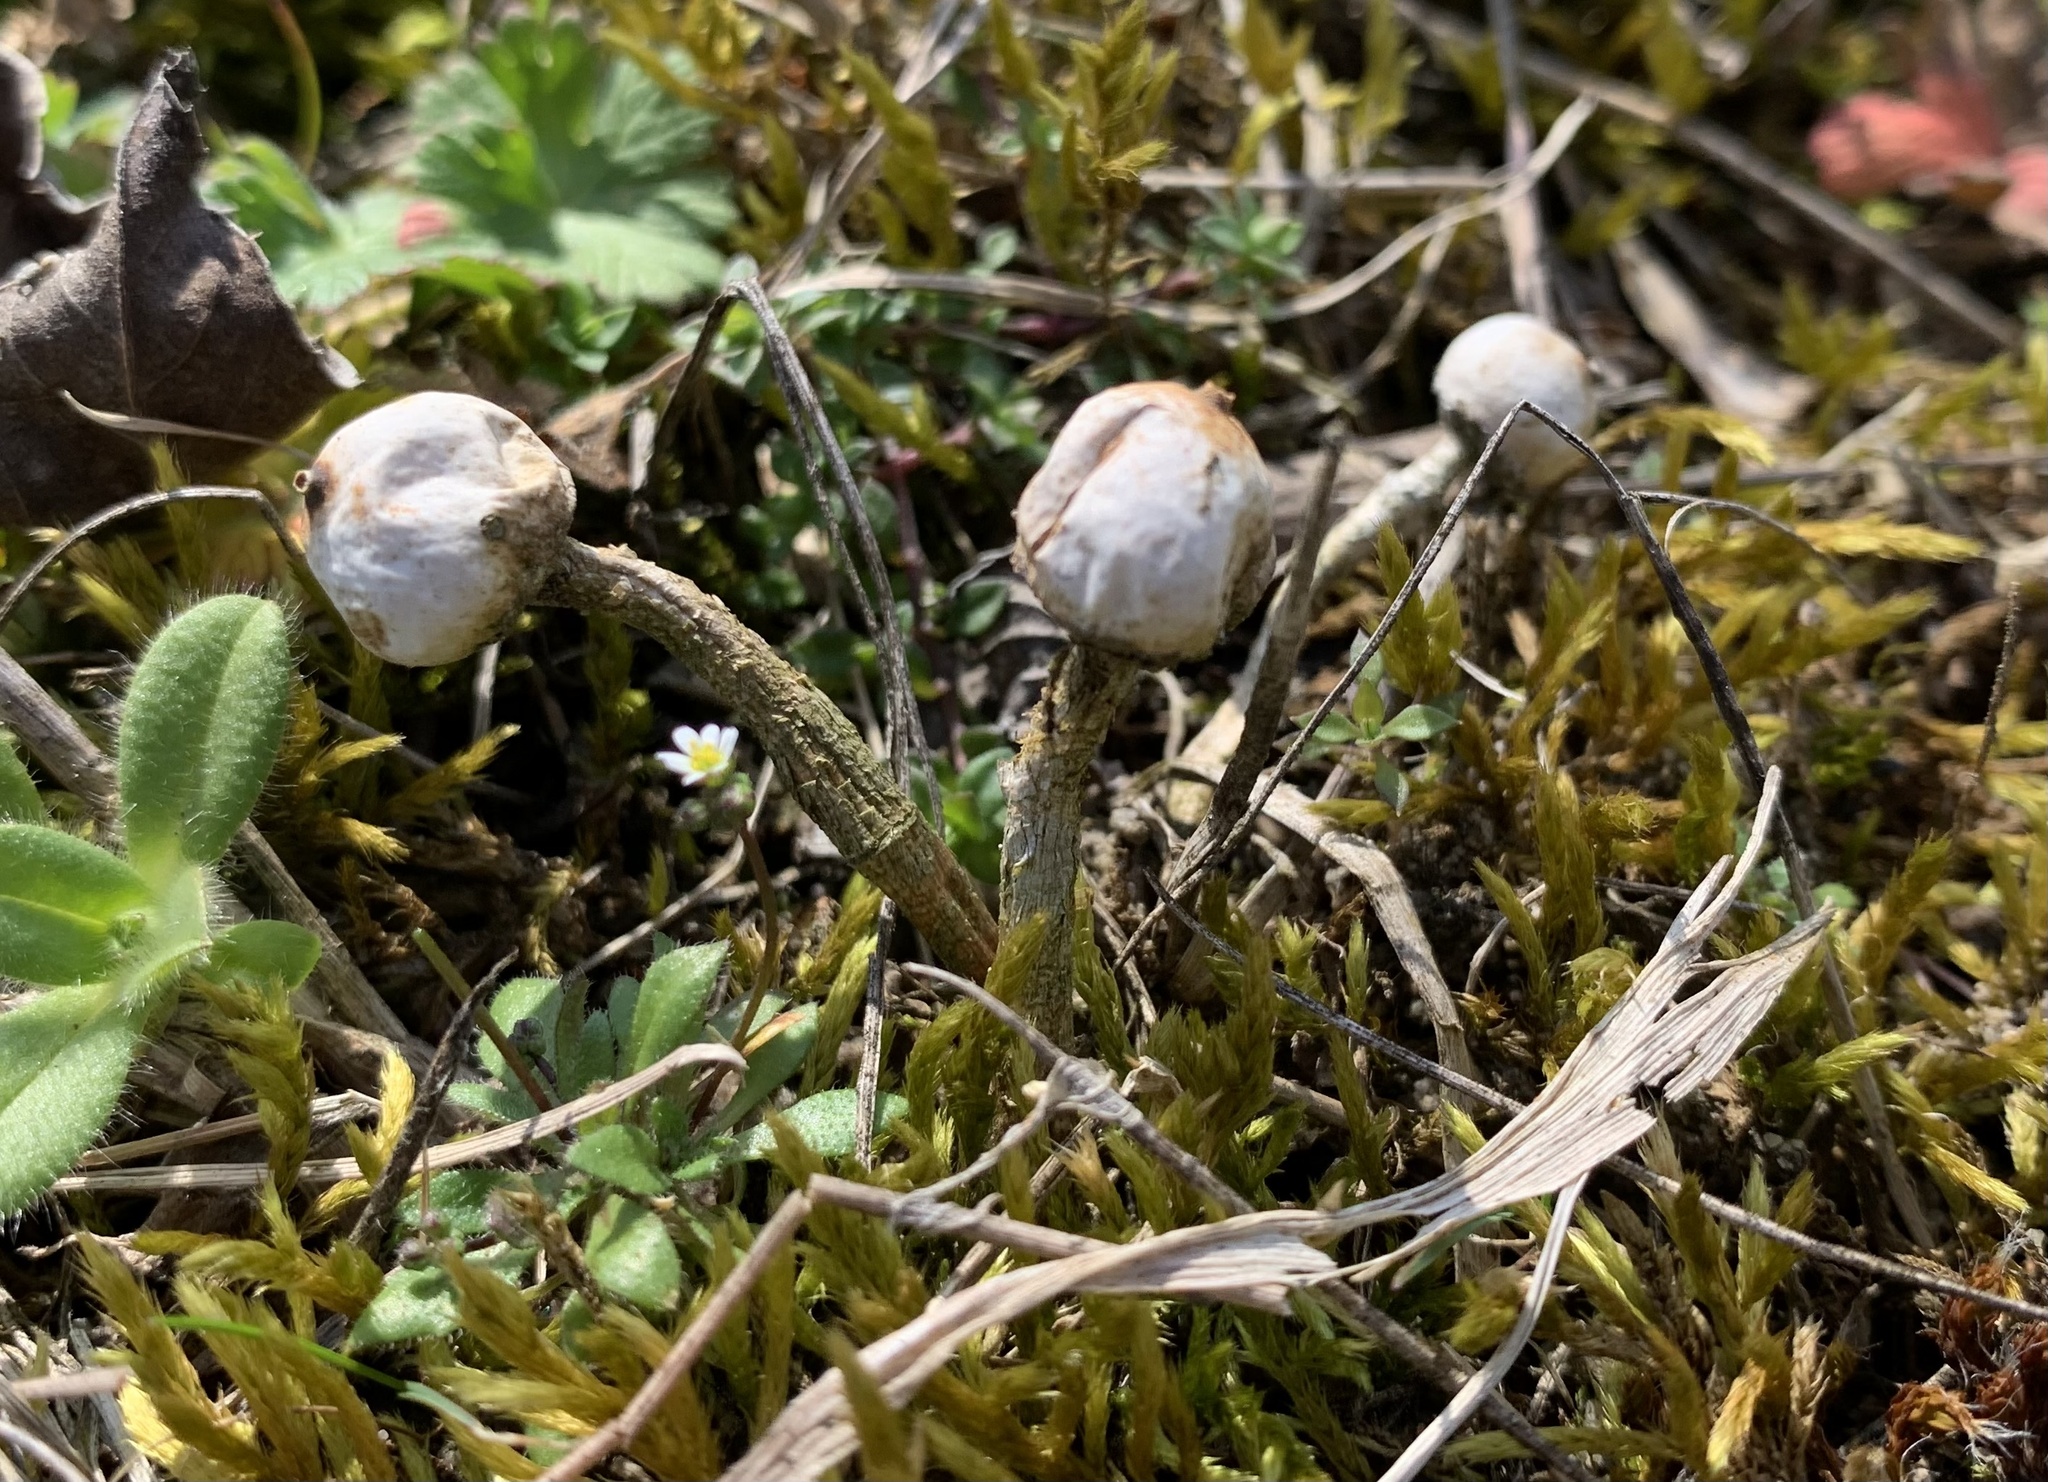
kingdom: Fungi
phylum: Basidiomycota
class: Agaricomycetes
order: Agaricales
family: Agaricaceae
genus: Tulostoma
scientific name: Tulostoma brumale
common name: Winter stalk puffball
